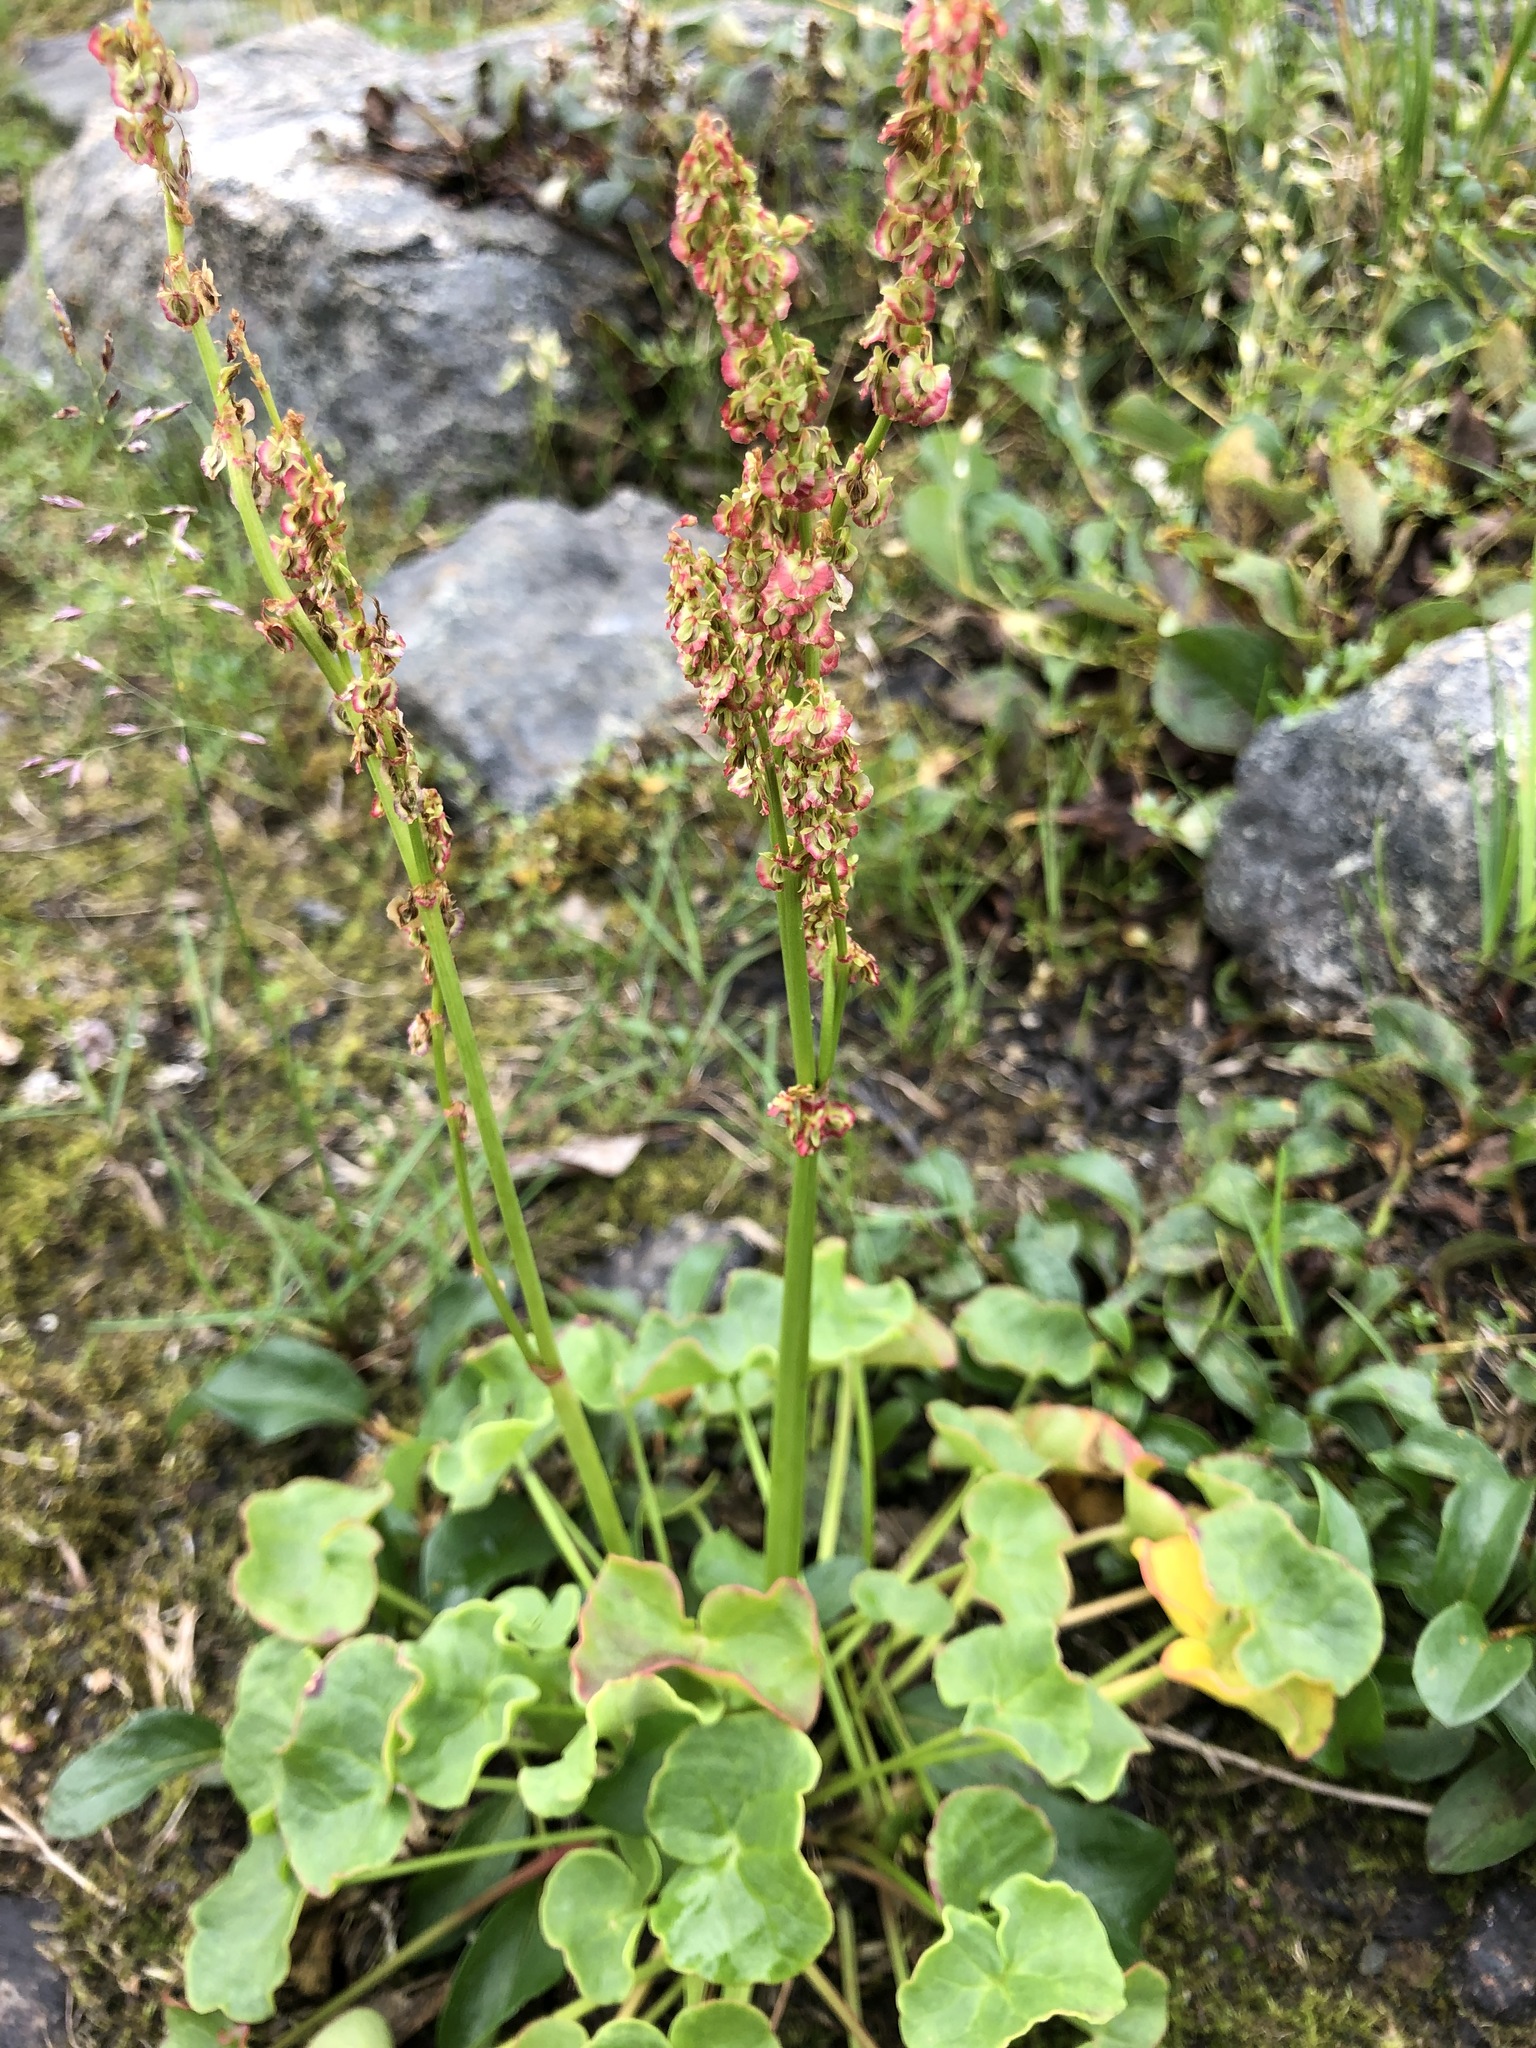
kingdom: Plantae
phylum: Tracheophyta
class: Magnoliopsida
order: Caryophyllales
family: Polygonaceae
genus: Oxyria
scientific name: Oxyria digyna
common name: Alpine mountain-sorrel
